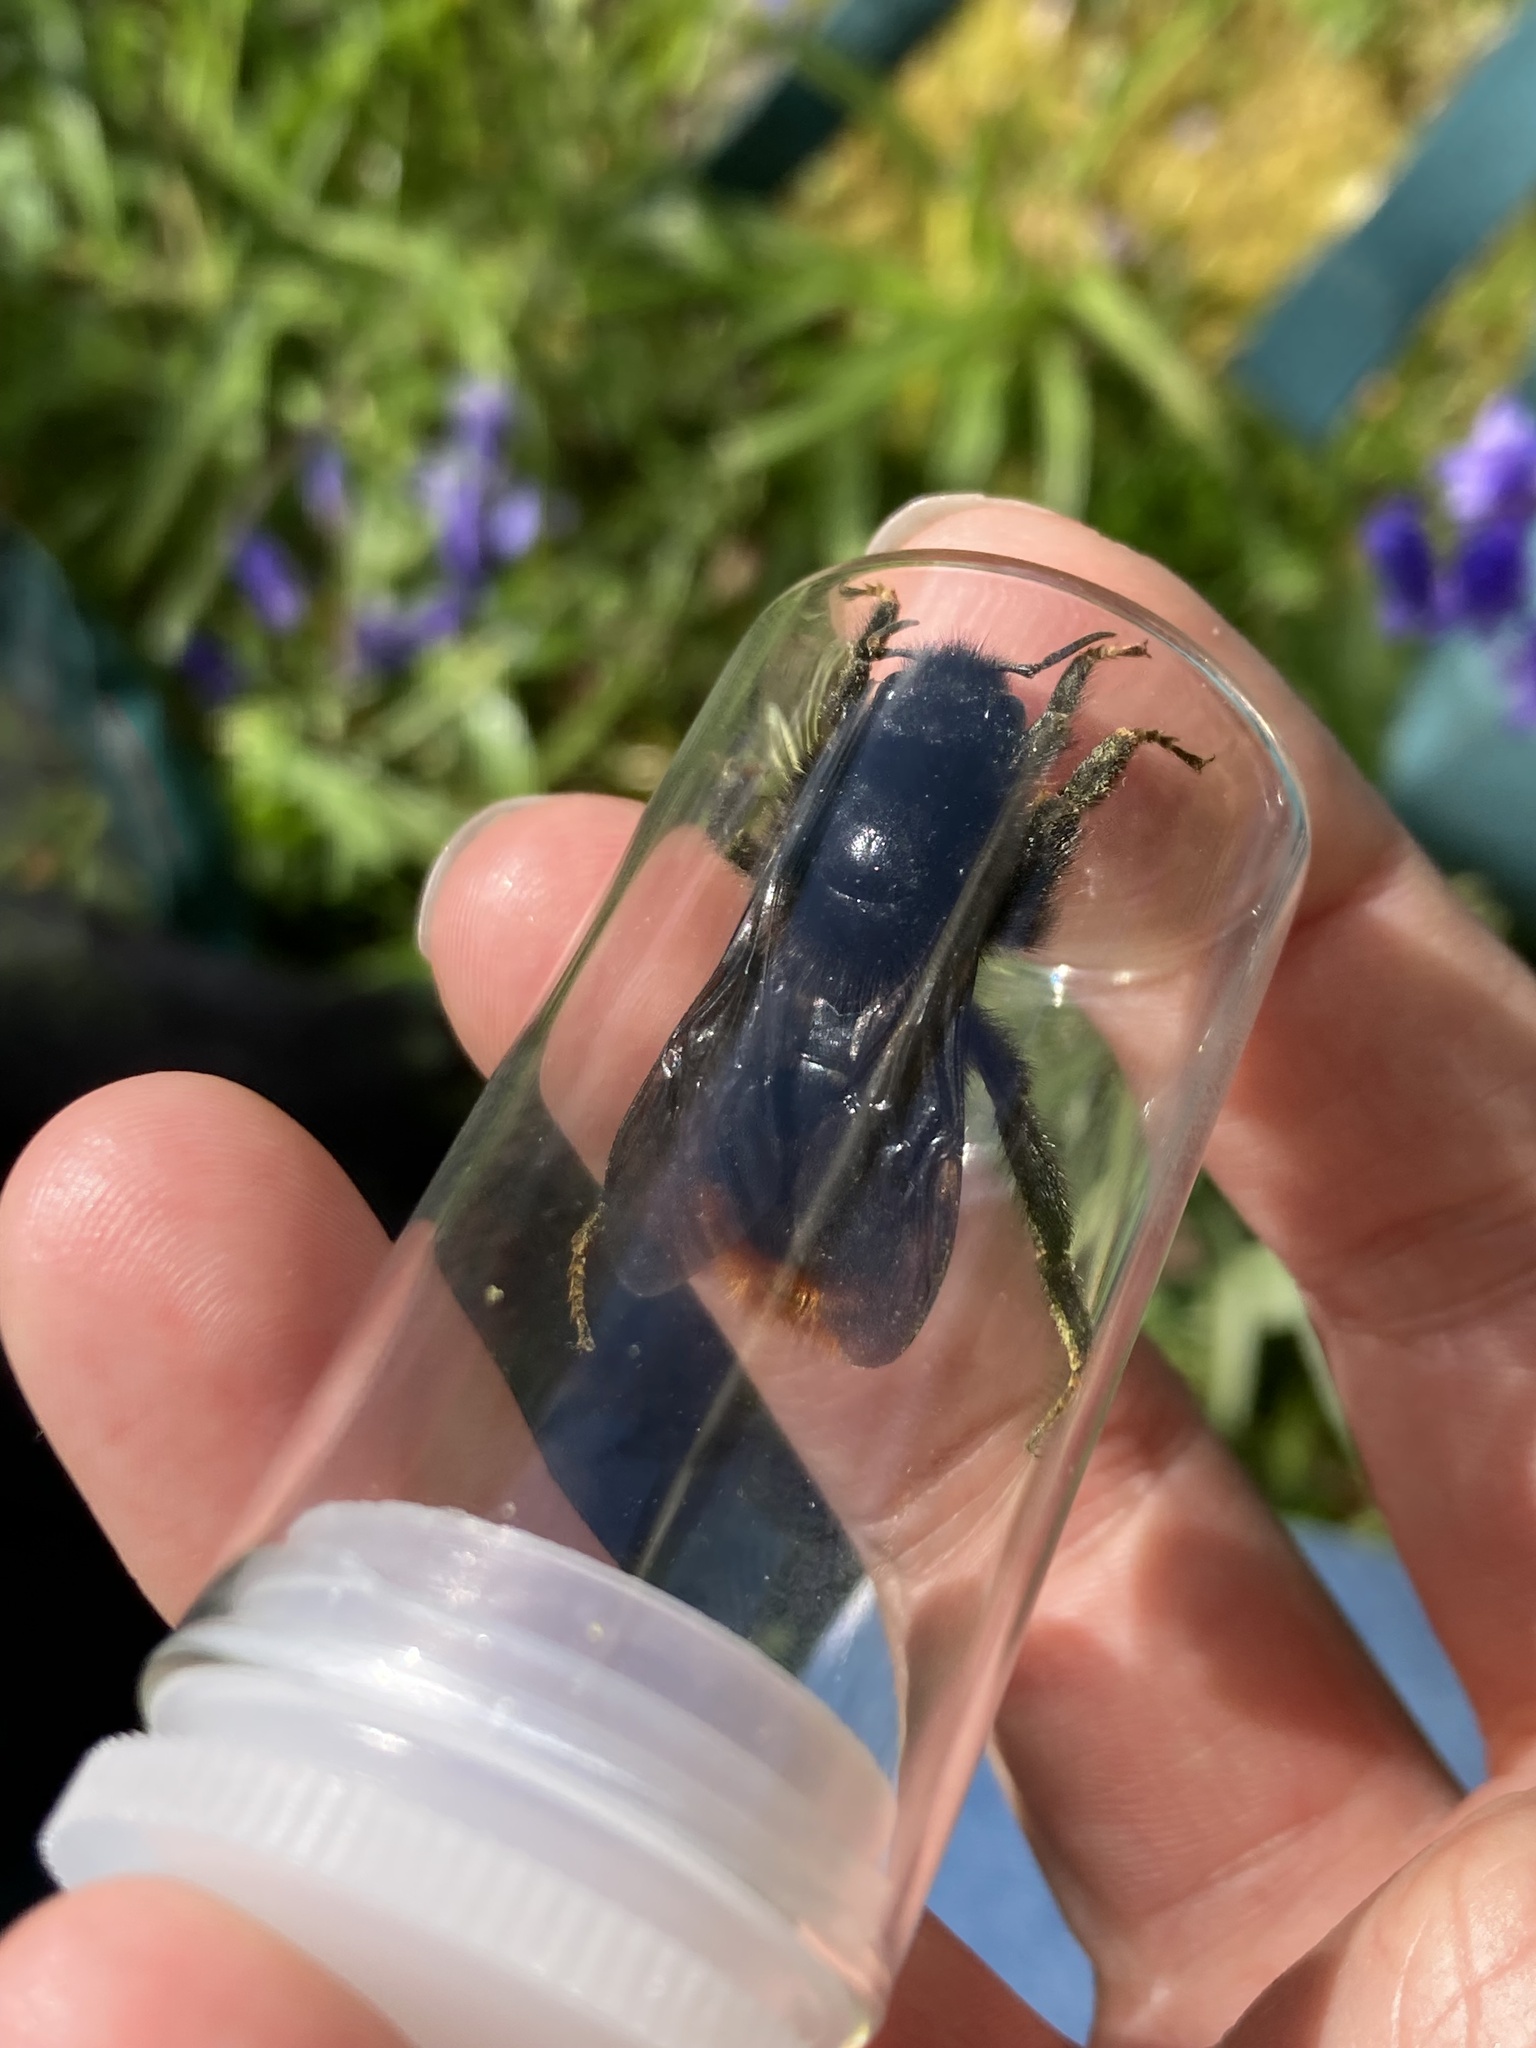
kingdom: Animalia
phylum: Arthropoda
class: Insecta
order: Hymenoptera
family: Apidae
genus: Bombus
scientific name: Bombus rupestris
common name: Hill cuckoo-bee
